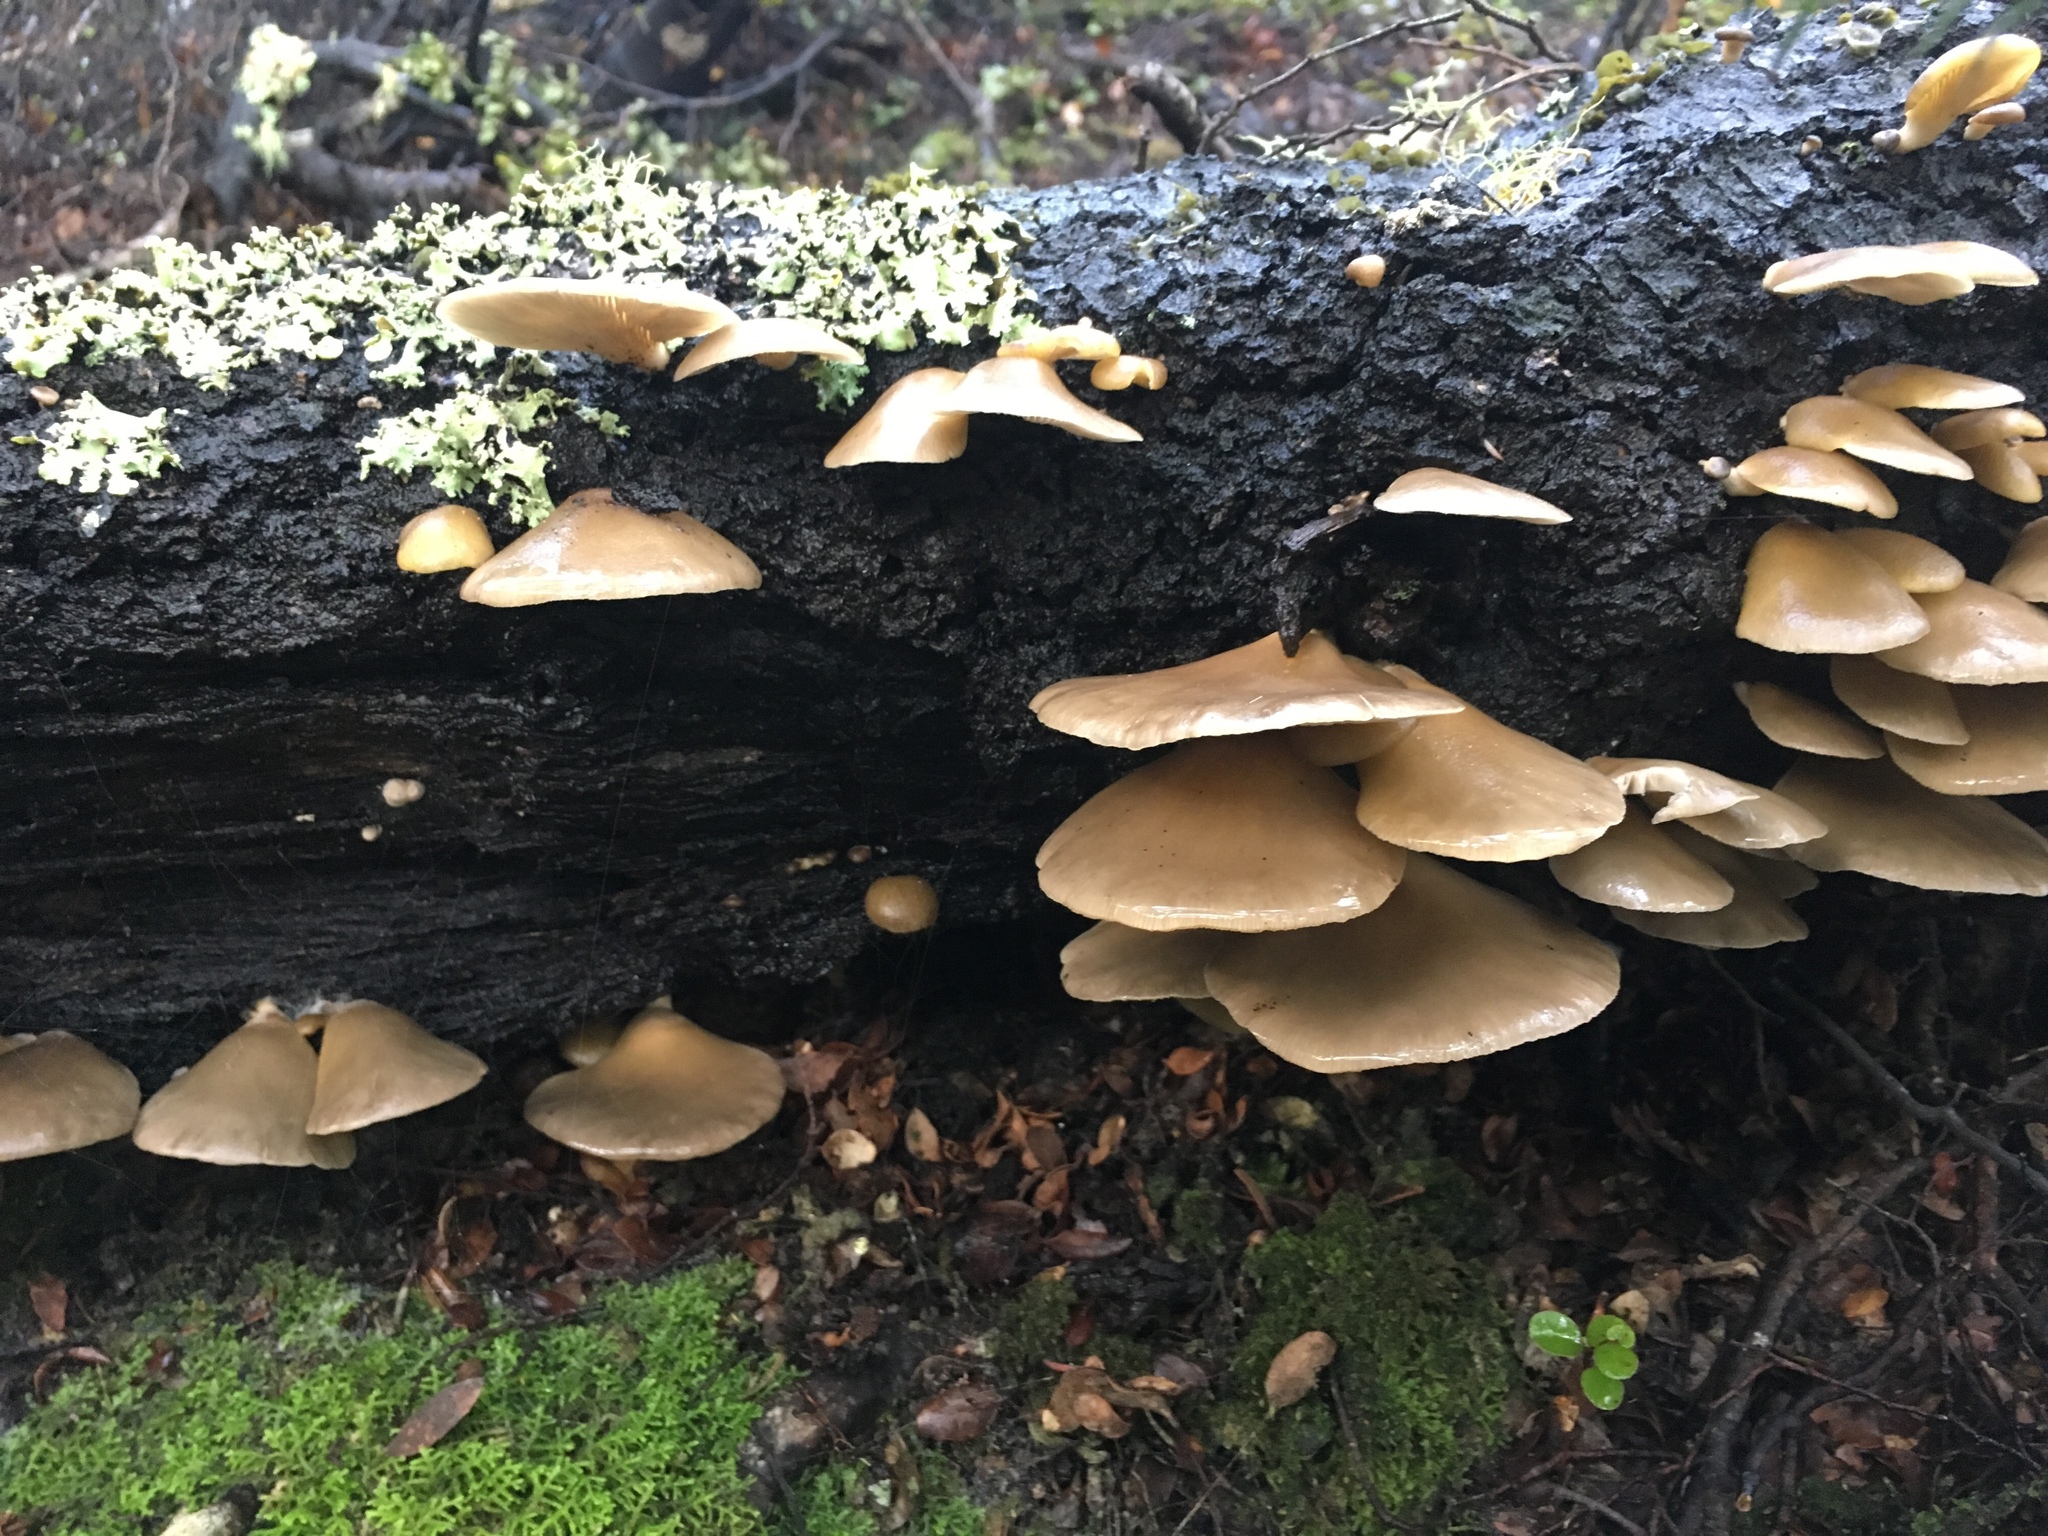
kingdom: Fungi
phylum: Basidiomycota
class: Agaricomycetes
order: Agaricales
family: Mycenaceae
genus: Panellus
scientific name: Panellus longinquus
